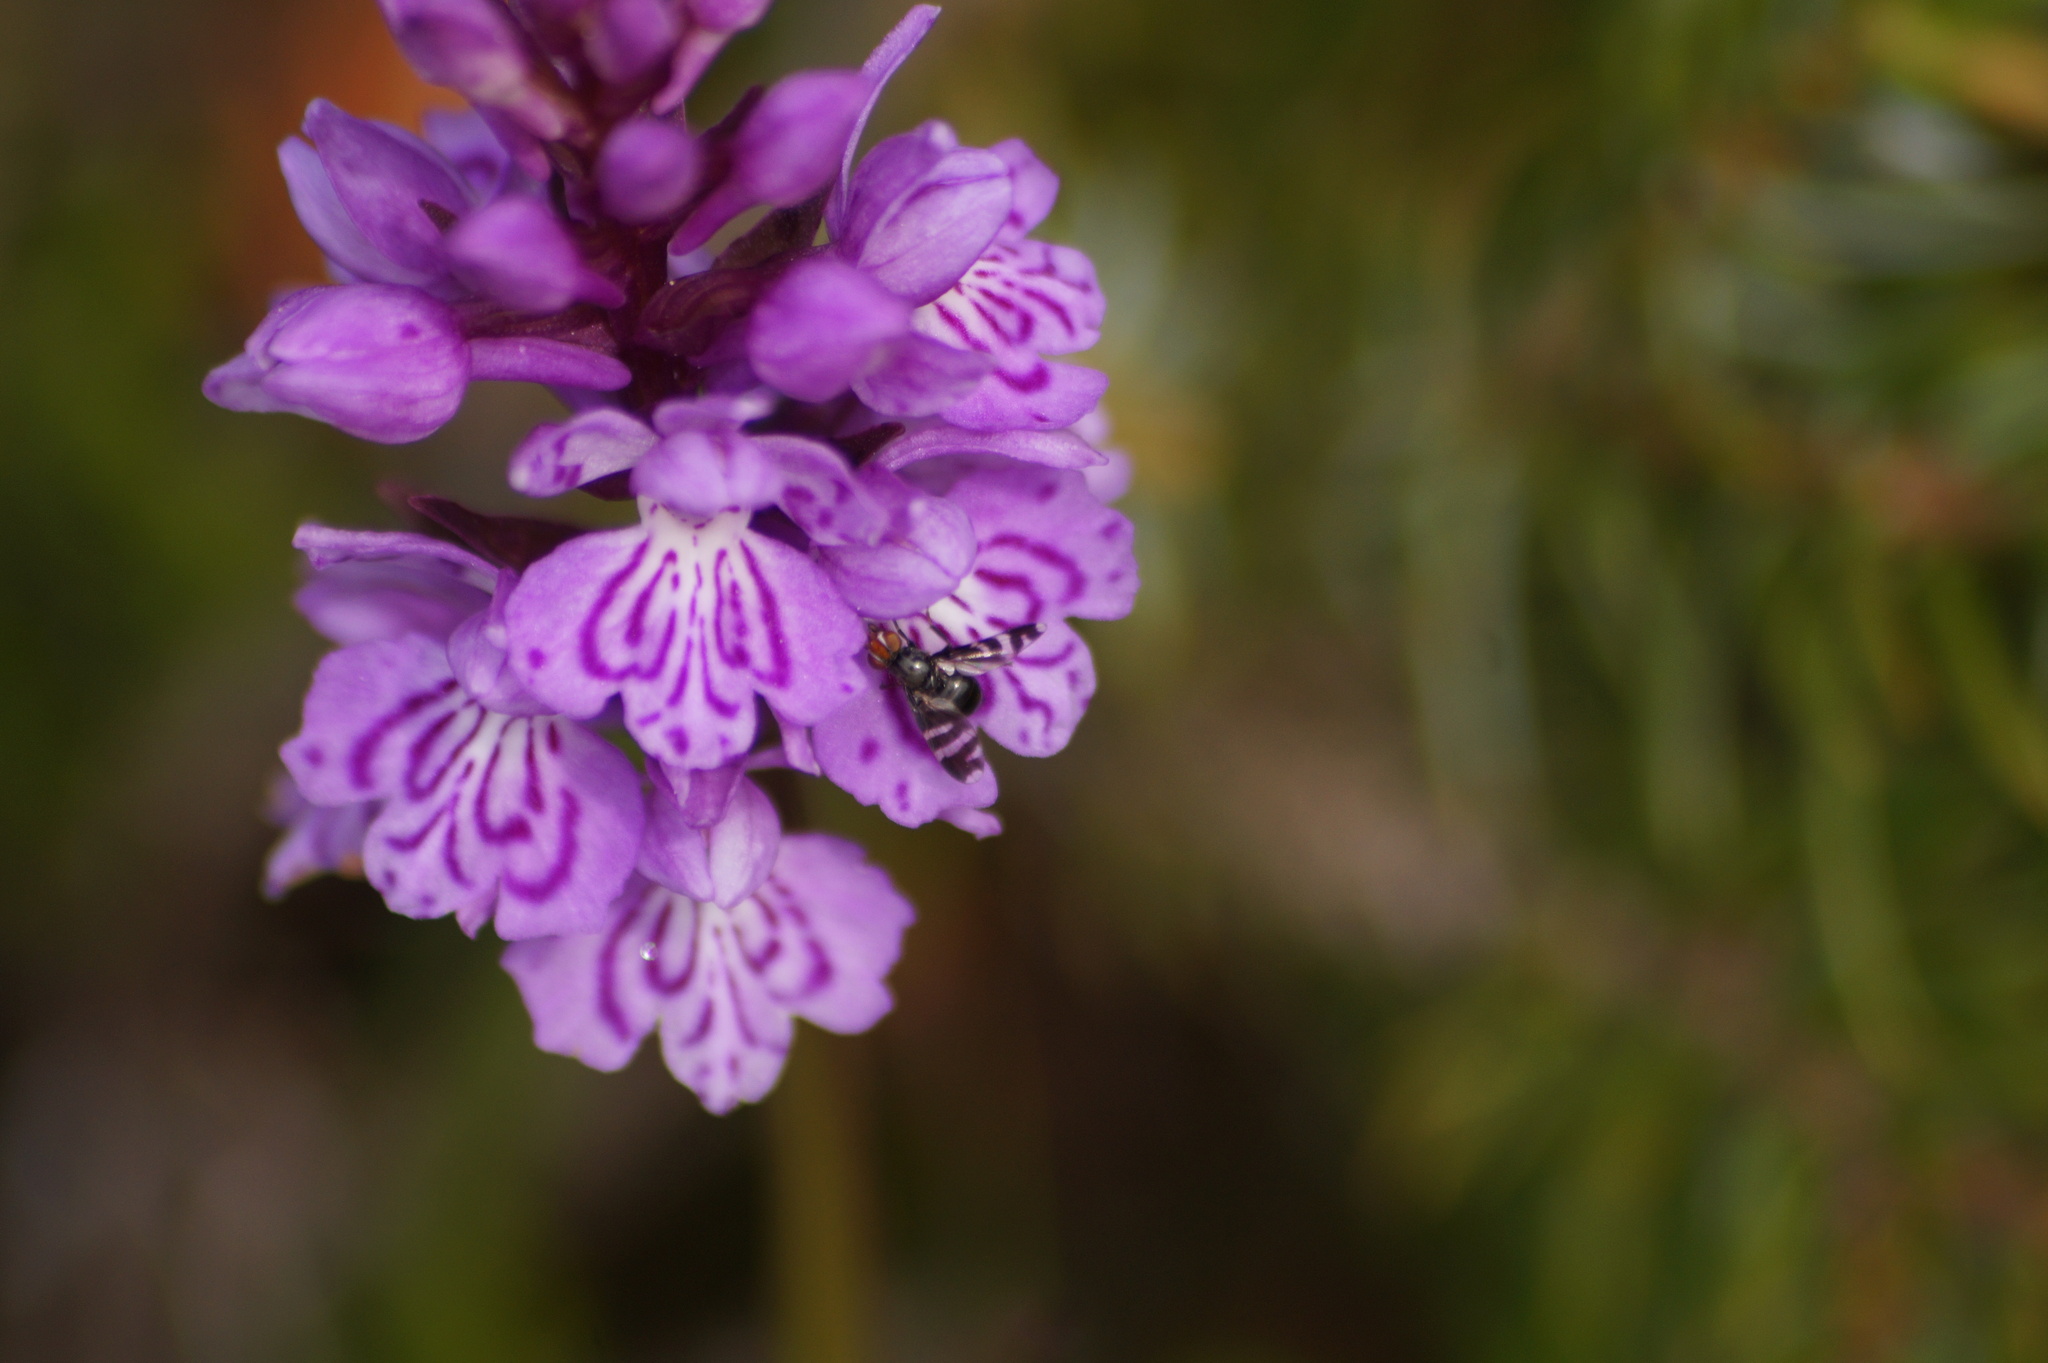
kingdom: Animalia
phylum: Arthropoda
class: Insecta
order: Diptera
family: Ulidiidae
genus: Herina
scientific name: Herina frondescentiae
